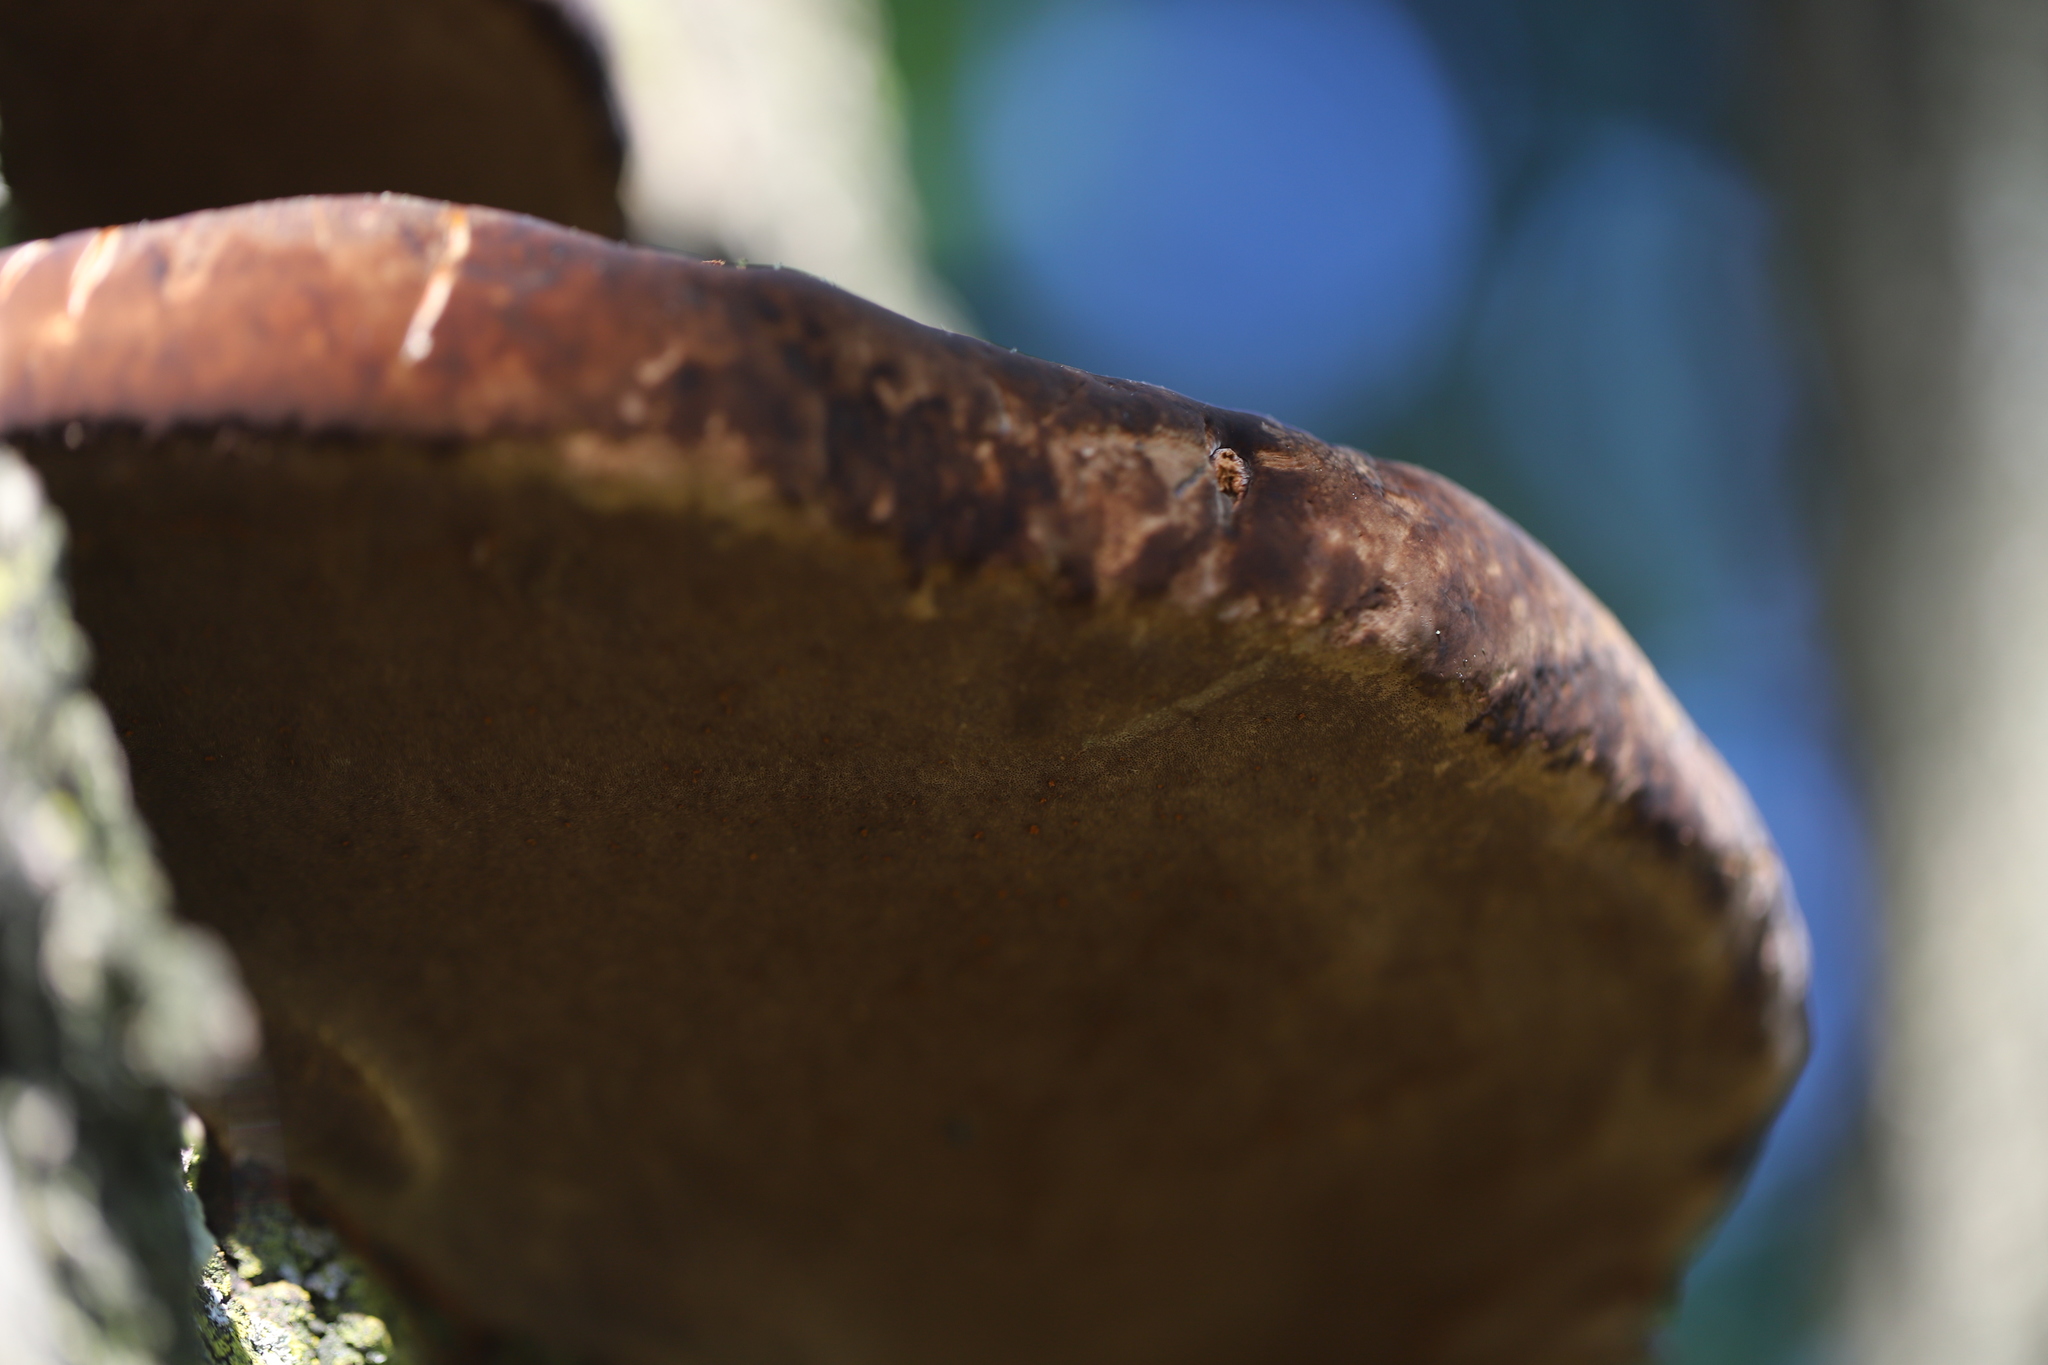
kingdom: Fungi
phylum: Basidiomycota
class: Agaricomycetes
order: Hymenochaetales
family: Hymenochaetaceae
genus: Phellinus
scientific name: Phellinus robiniae
